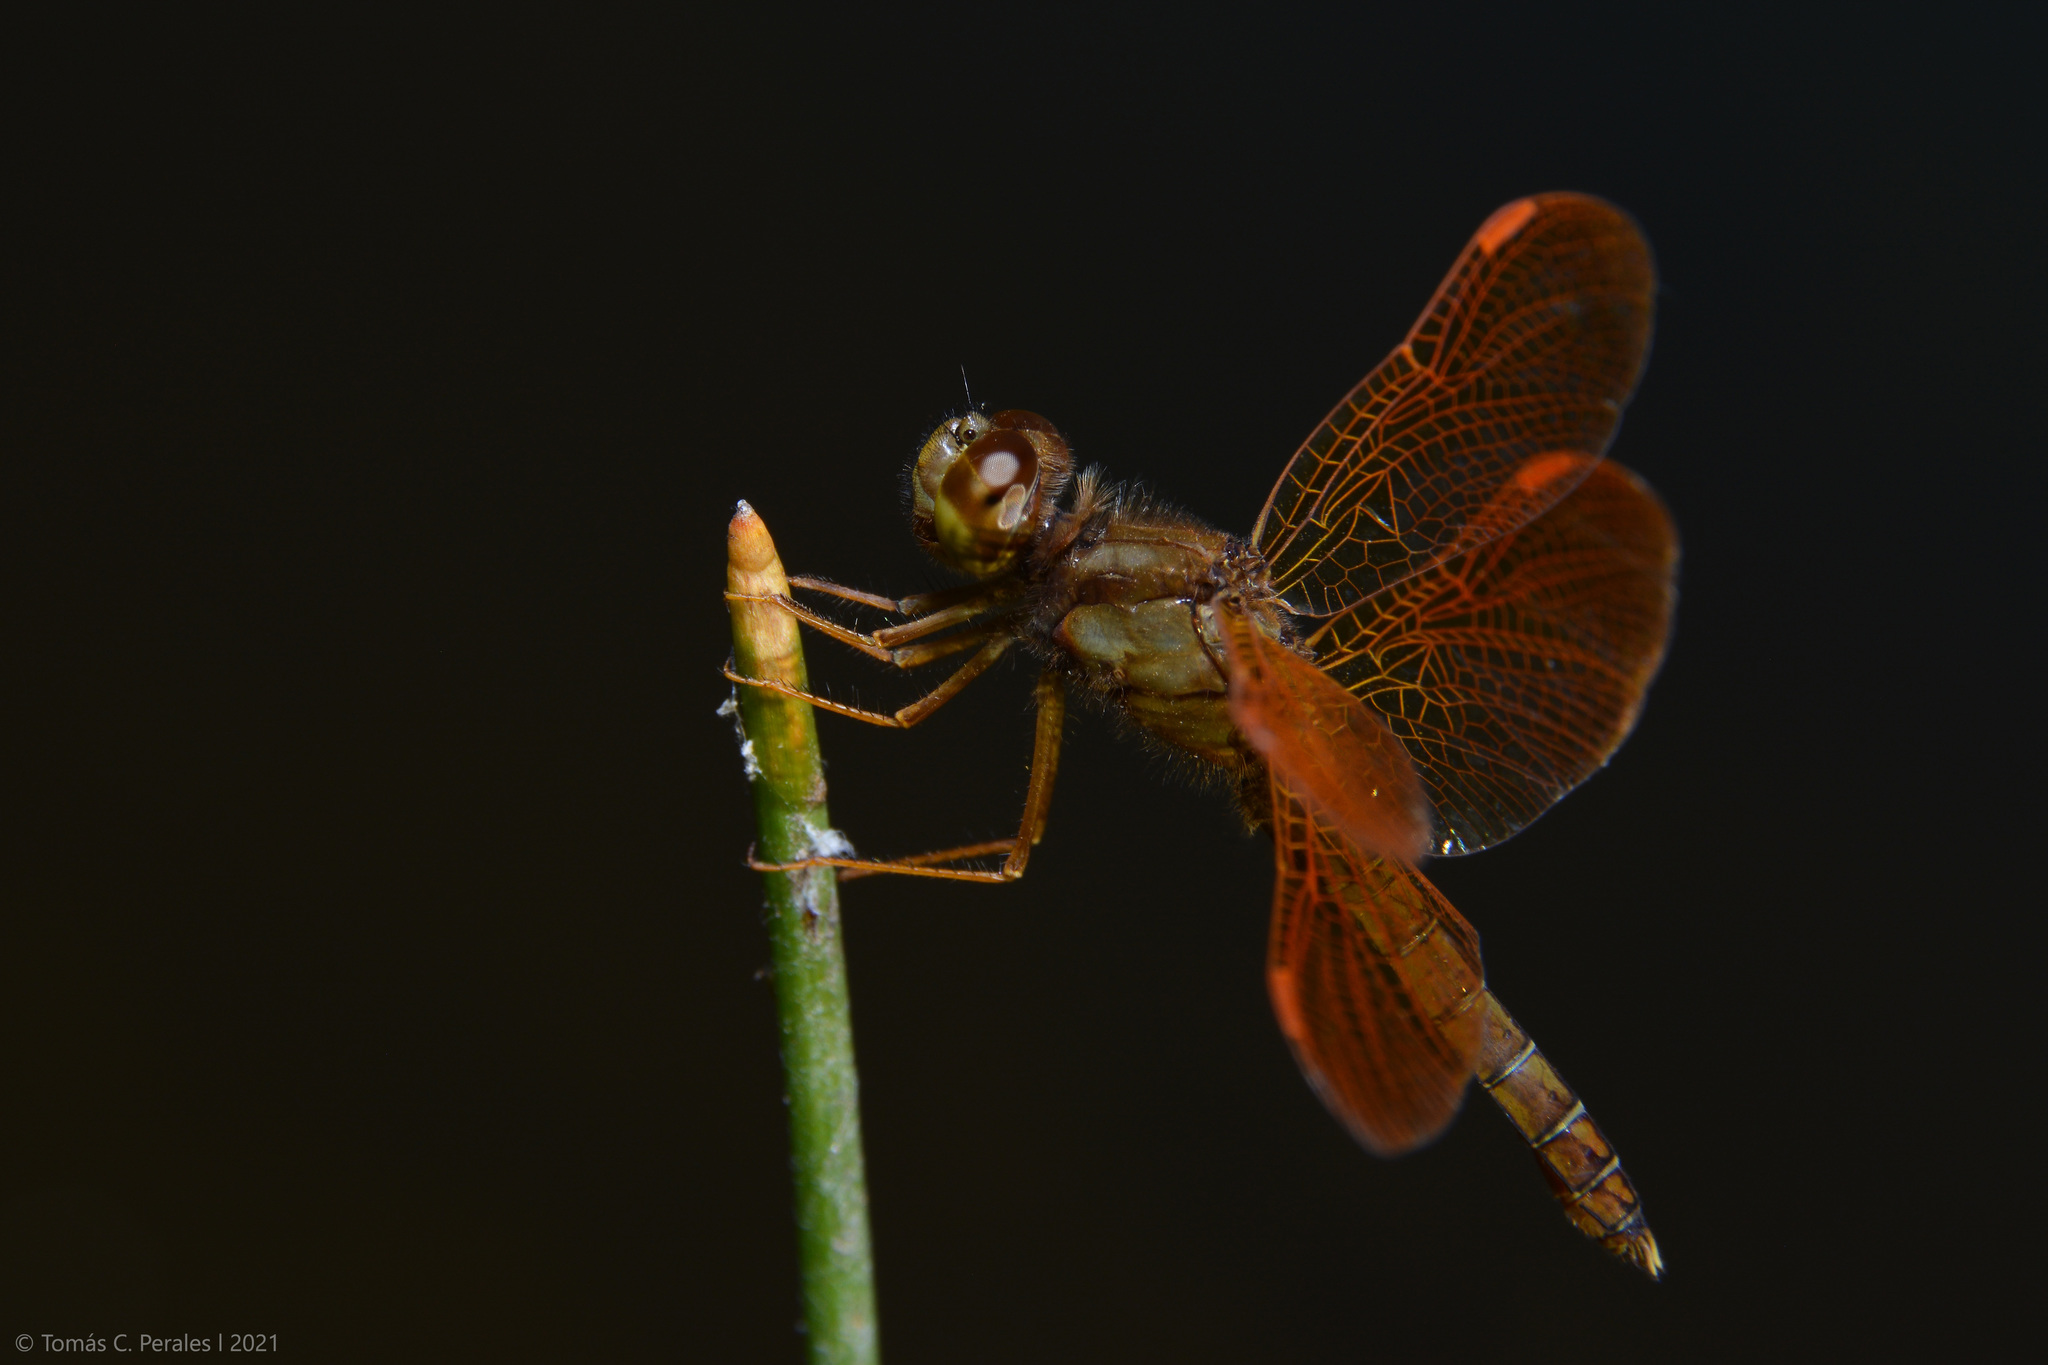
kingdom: Animalia
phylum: Arthropoda
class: Insecta
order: Odonata
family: Libellulidae
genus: Perithemis
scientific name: Perithemis tenera
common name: Eastern amberwing
